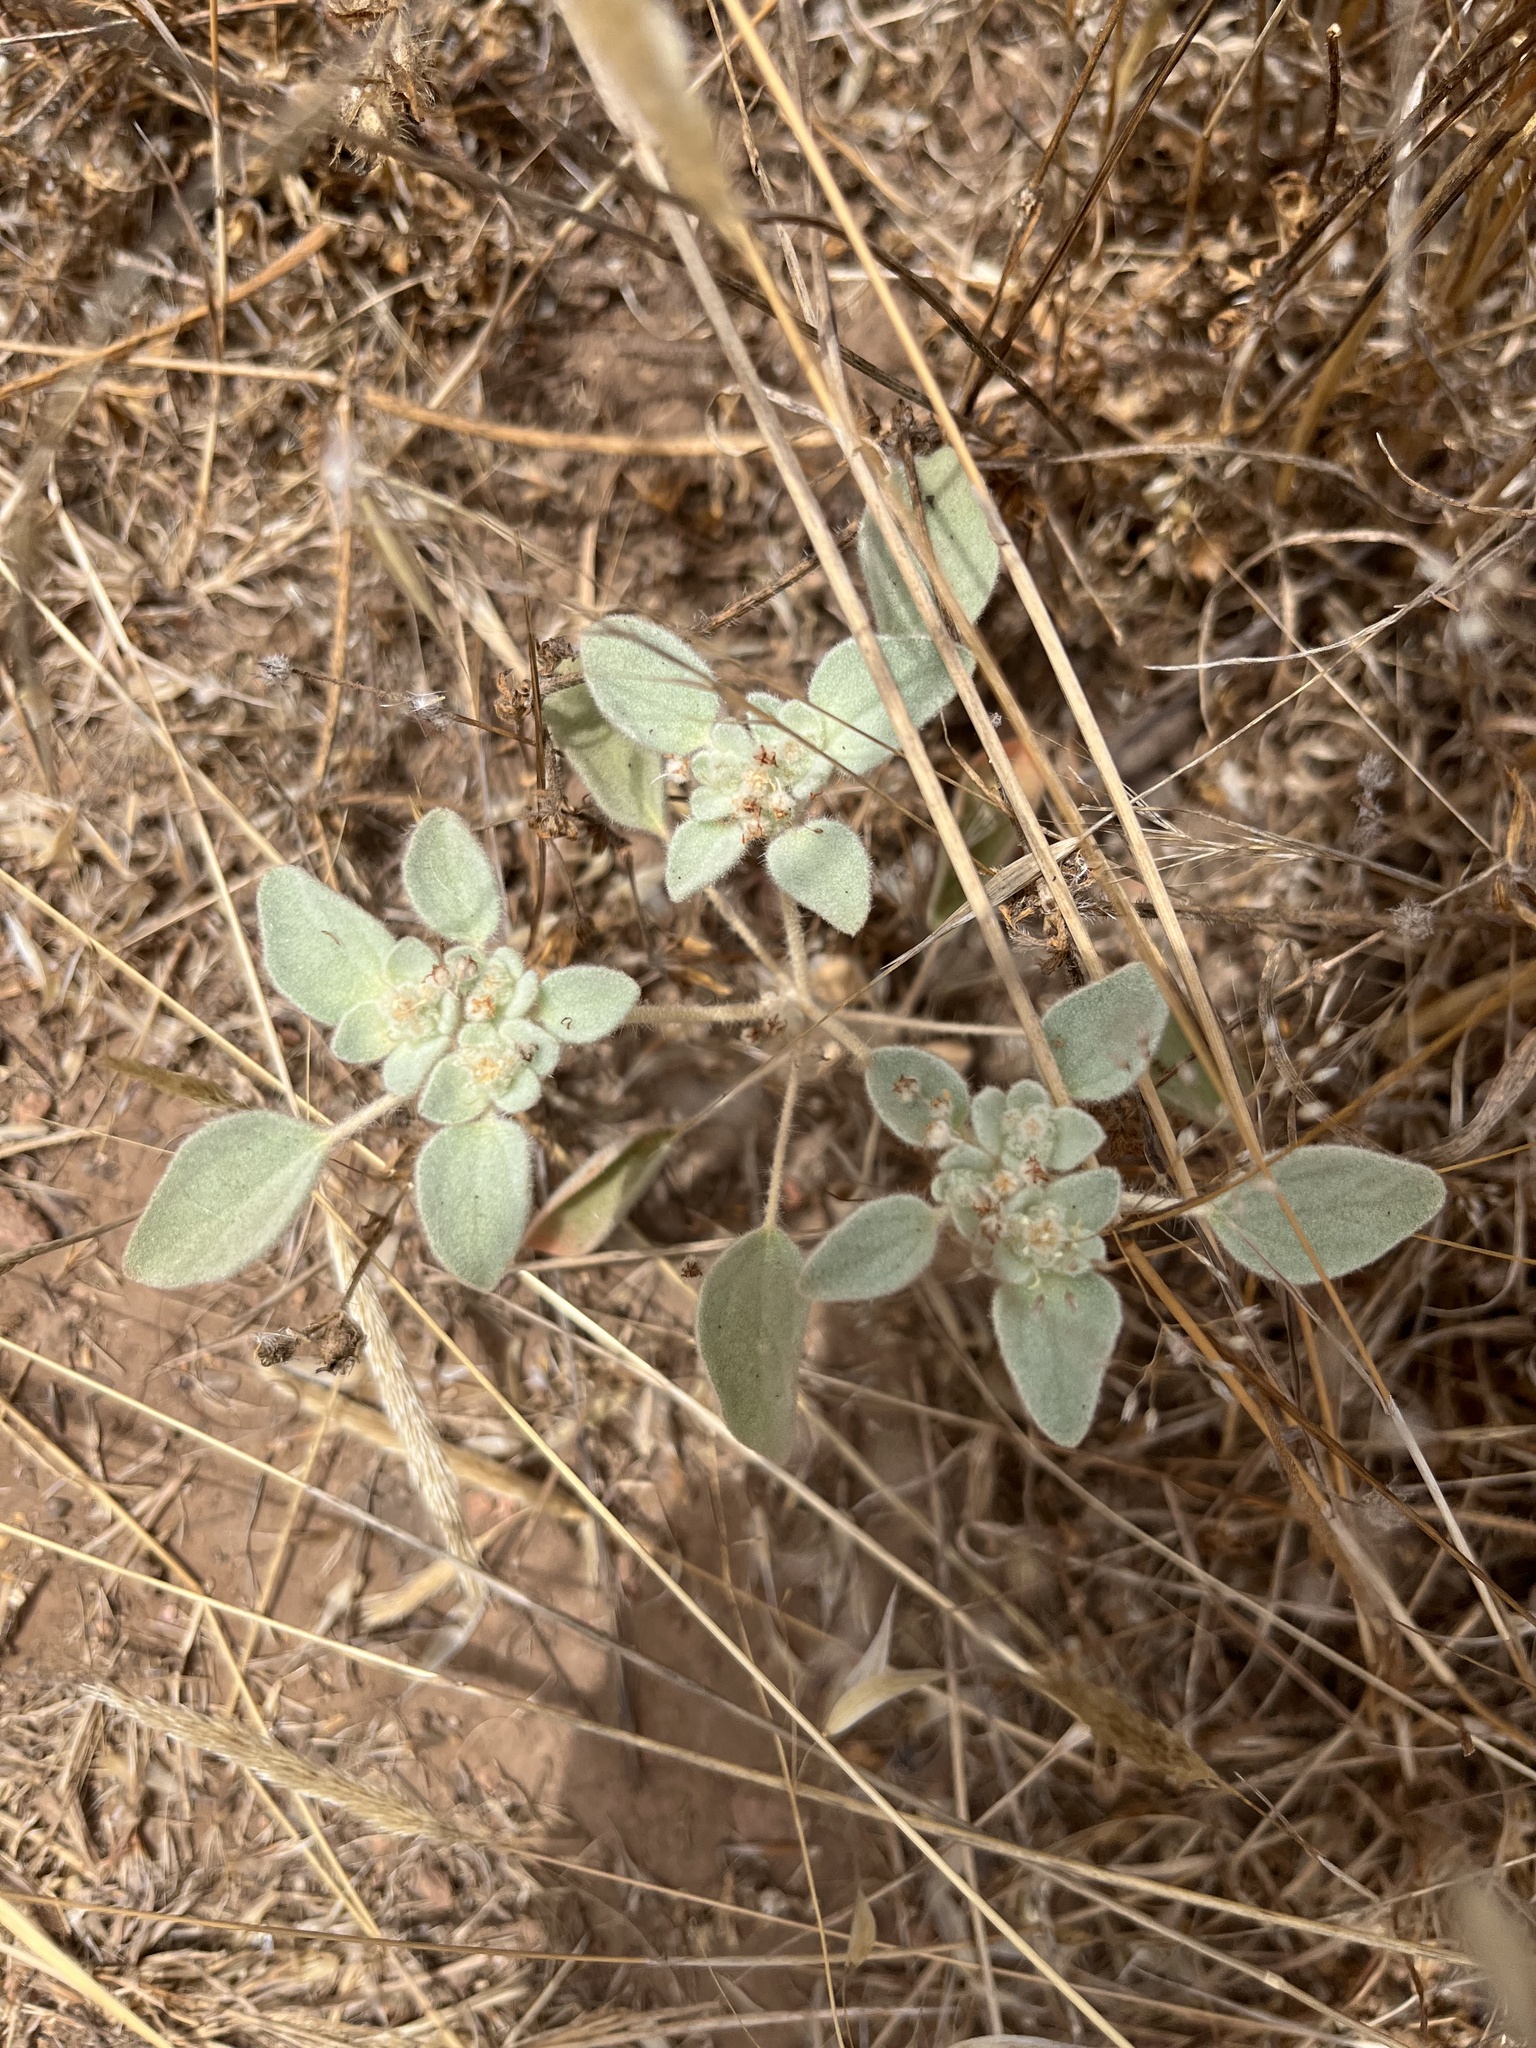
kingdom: Plantae
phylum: Tracheophyta
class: Magnoliopsida
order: Malpighiales
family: Euphorbiaceae
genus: Croton
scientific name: Croton setiger
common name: Dove weed
